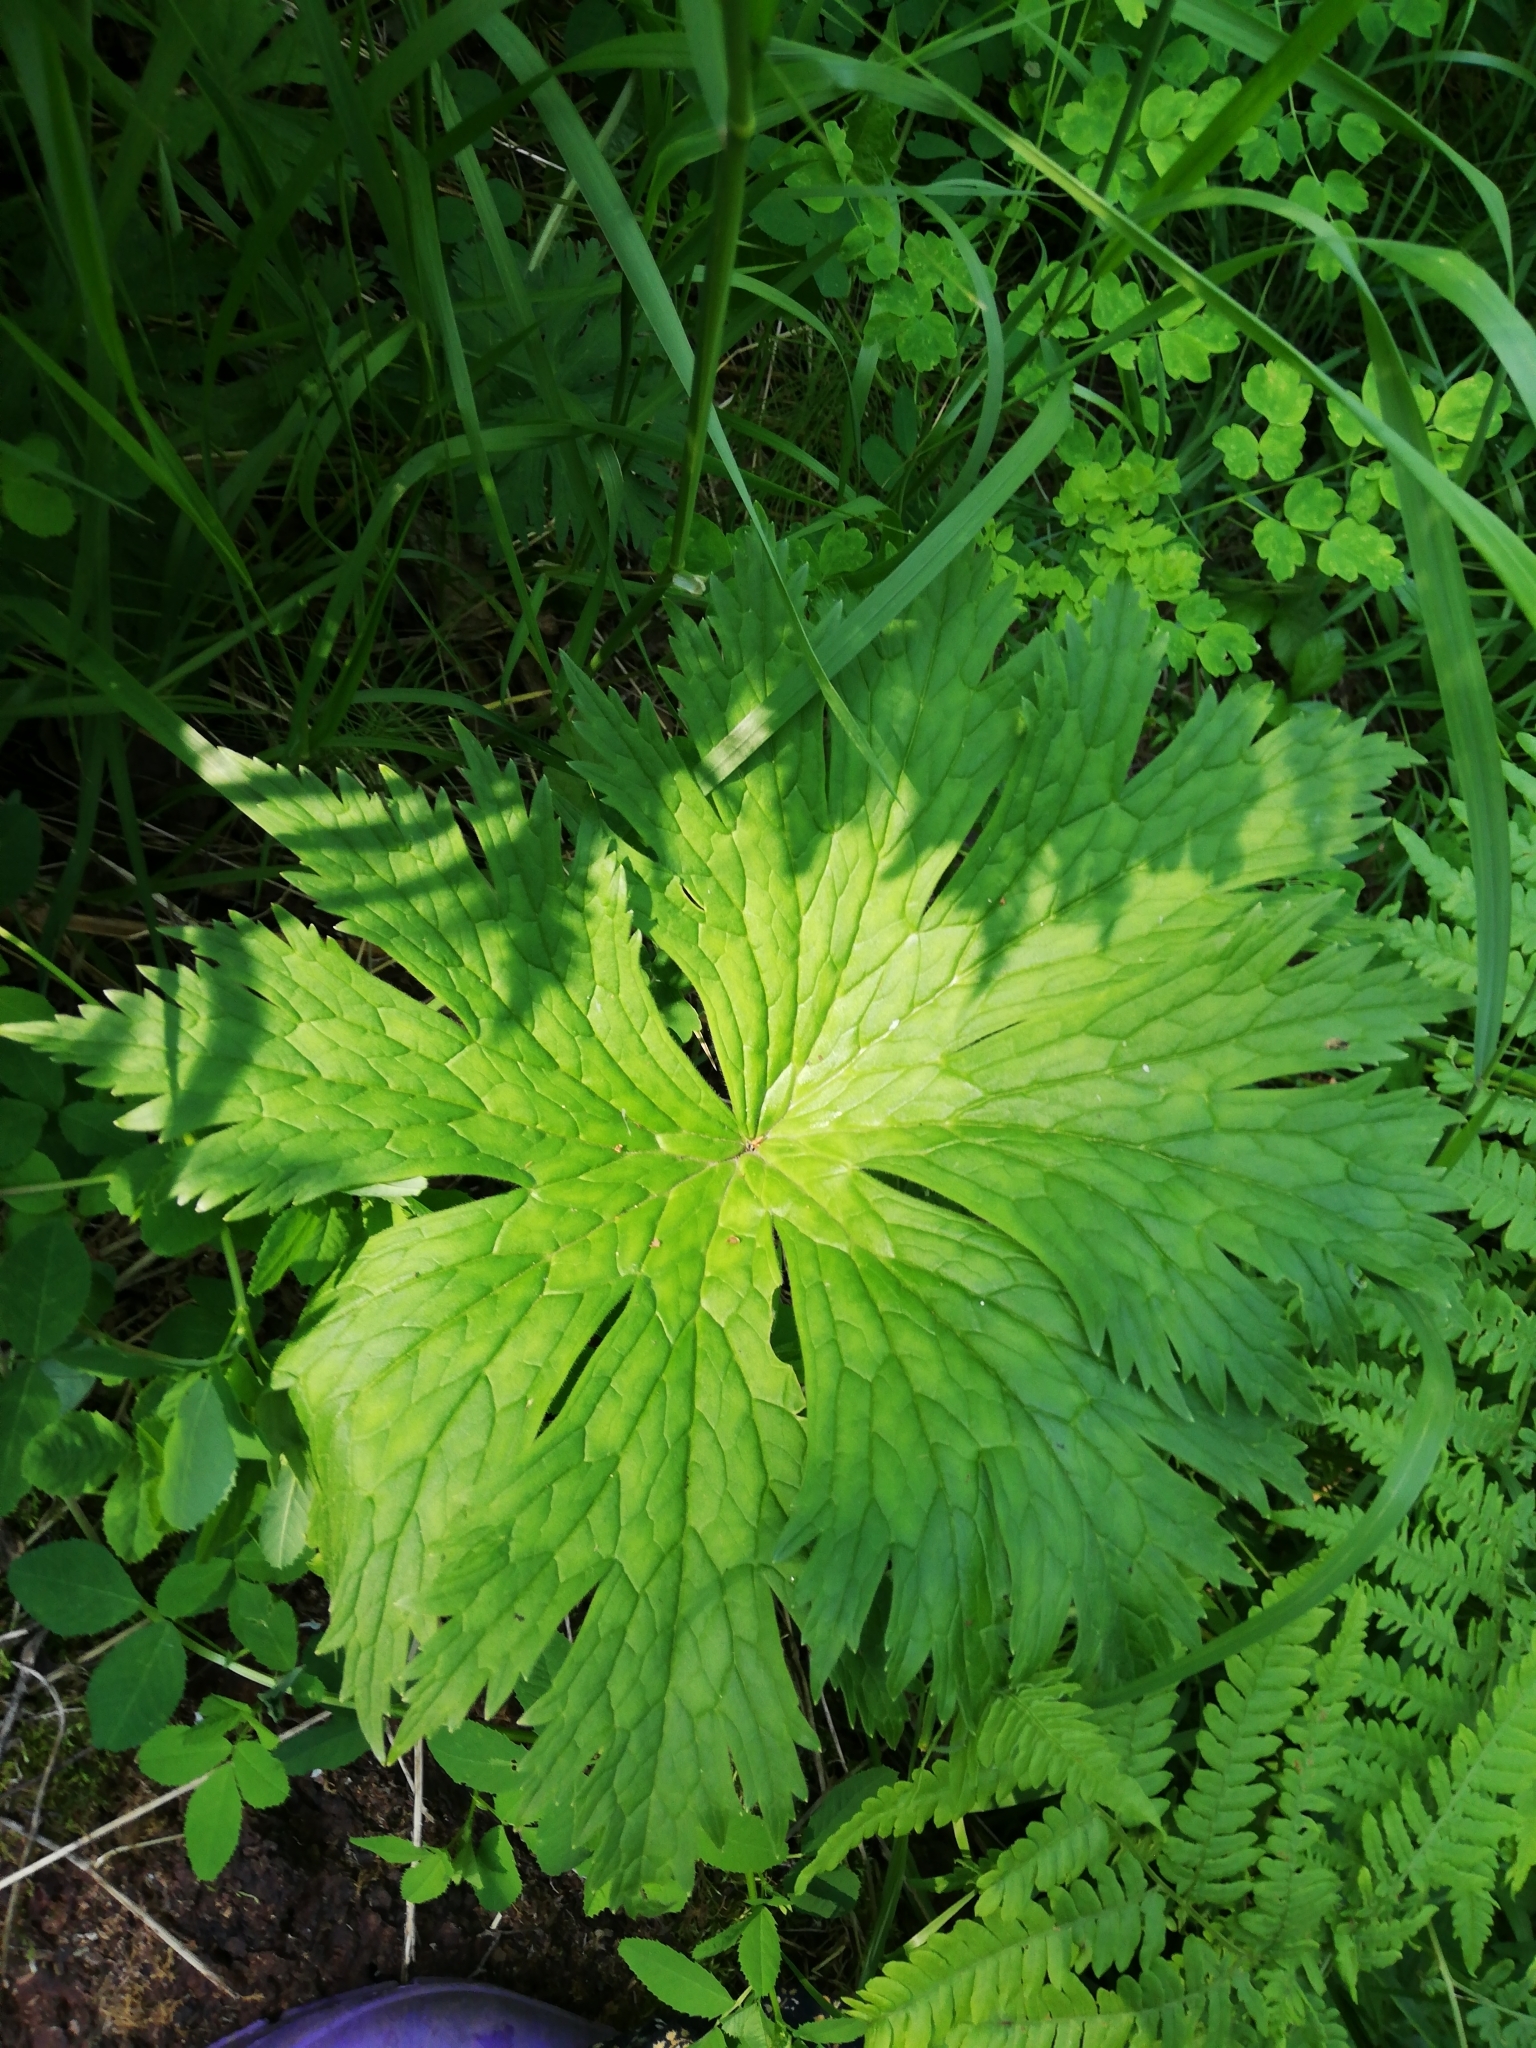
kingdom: Plantae
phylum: Tracheophyta
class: Magnoliopsida
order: Ranunculales
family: Ranunculaceae
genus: Aconitum
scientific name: Aconitum septentrionale
